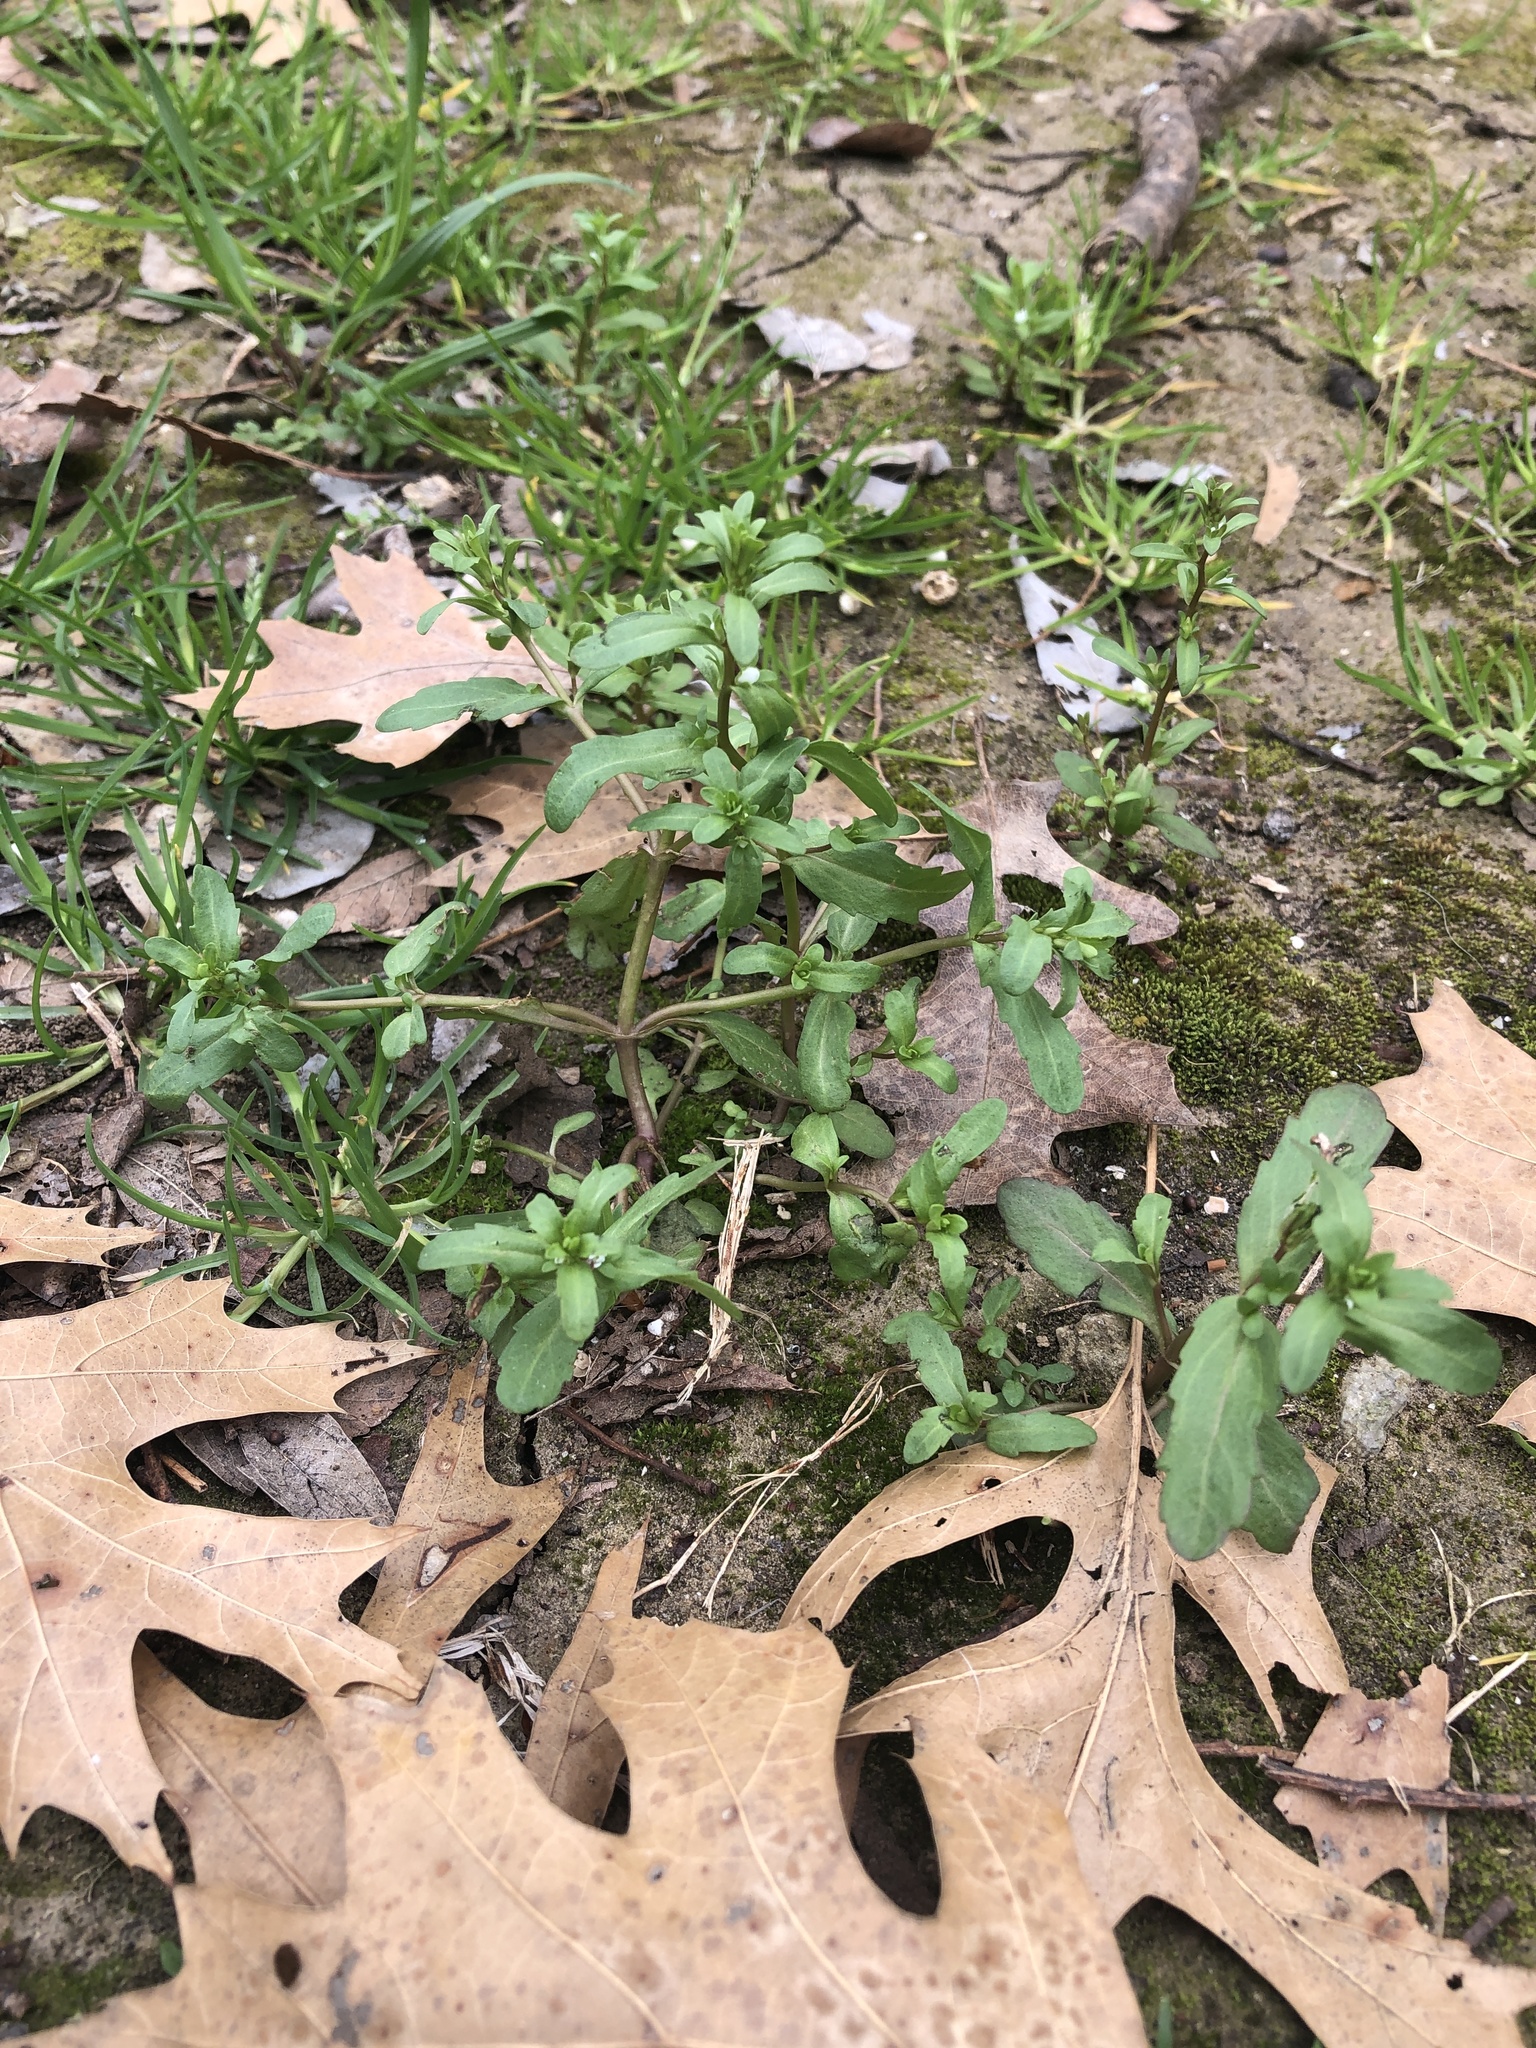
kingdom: Plantae
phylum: Tracheophyta
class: Magnoliopsida
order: Lamiales
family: Plantaginaceae
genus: Veronica
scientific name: Veronica peregrina
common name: Neckweed
